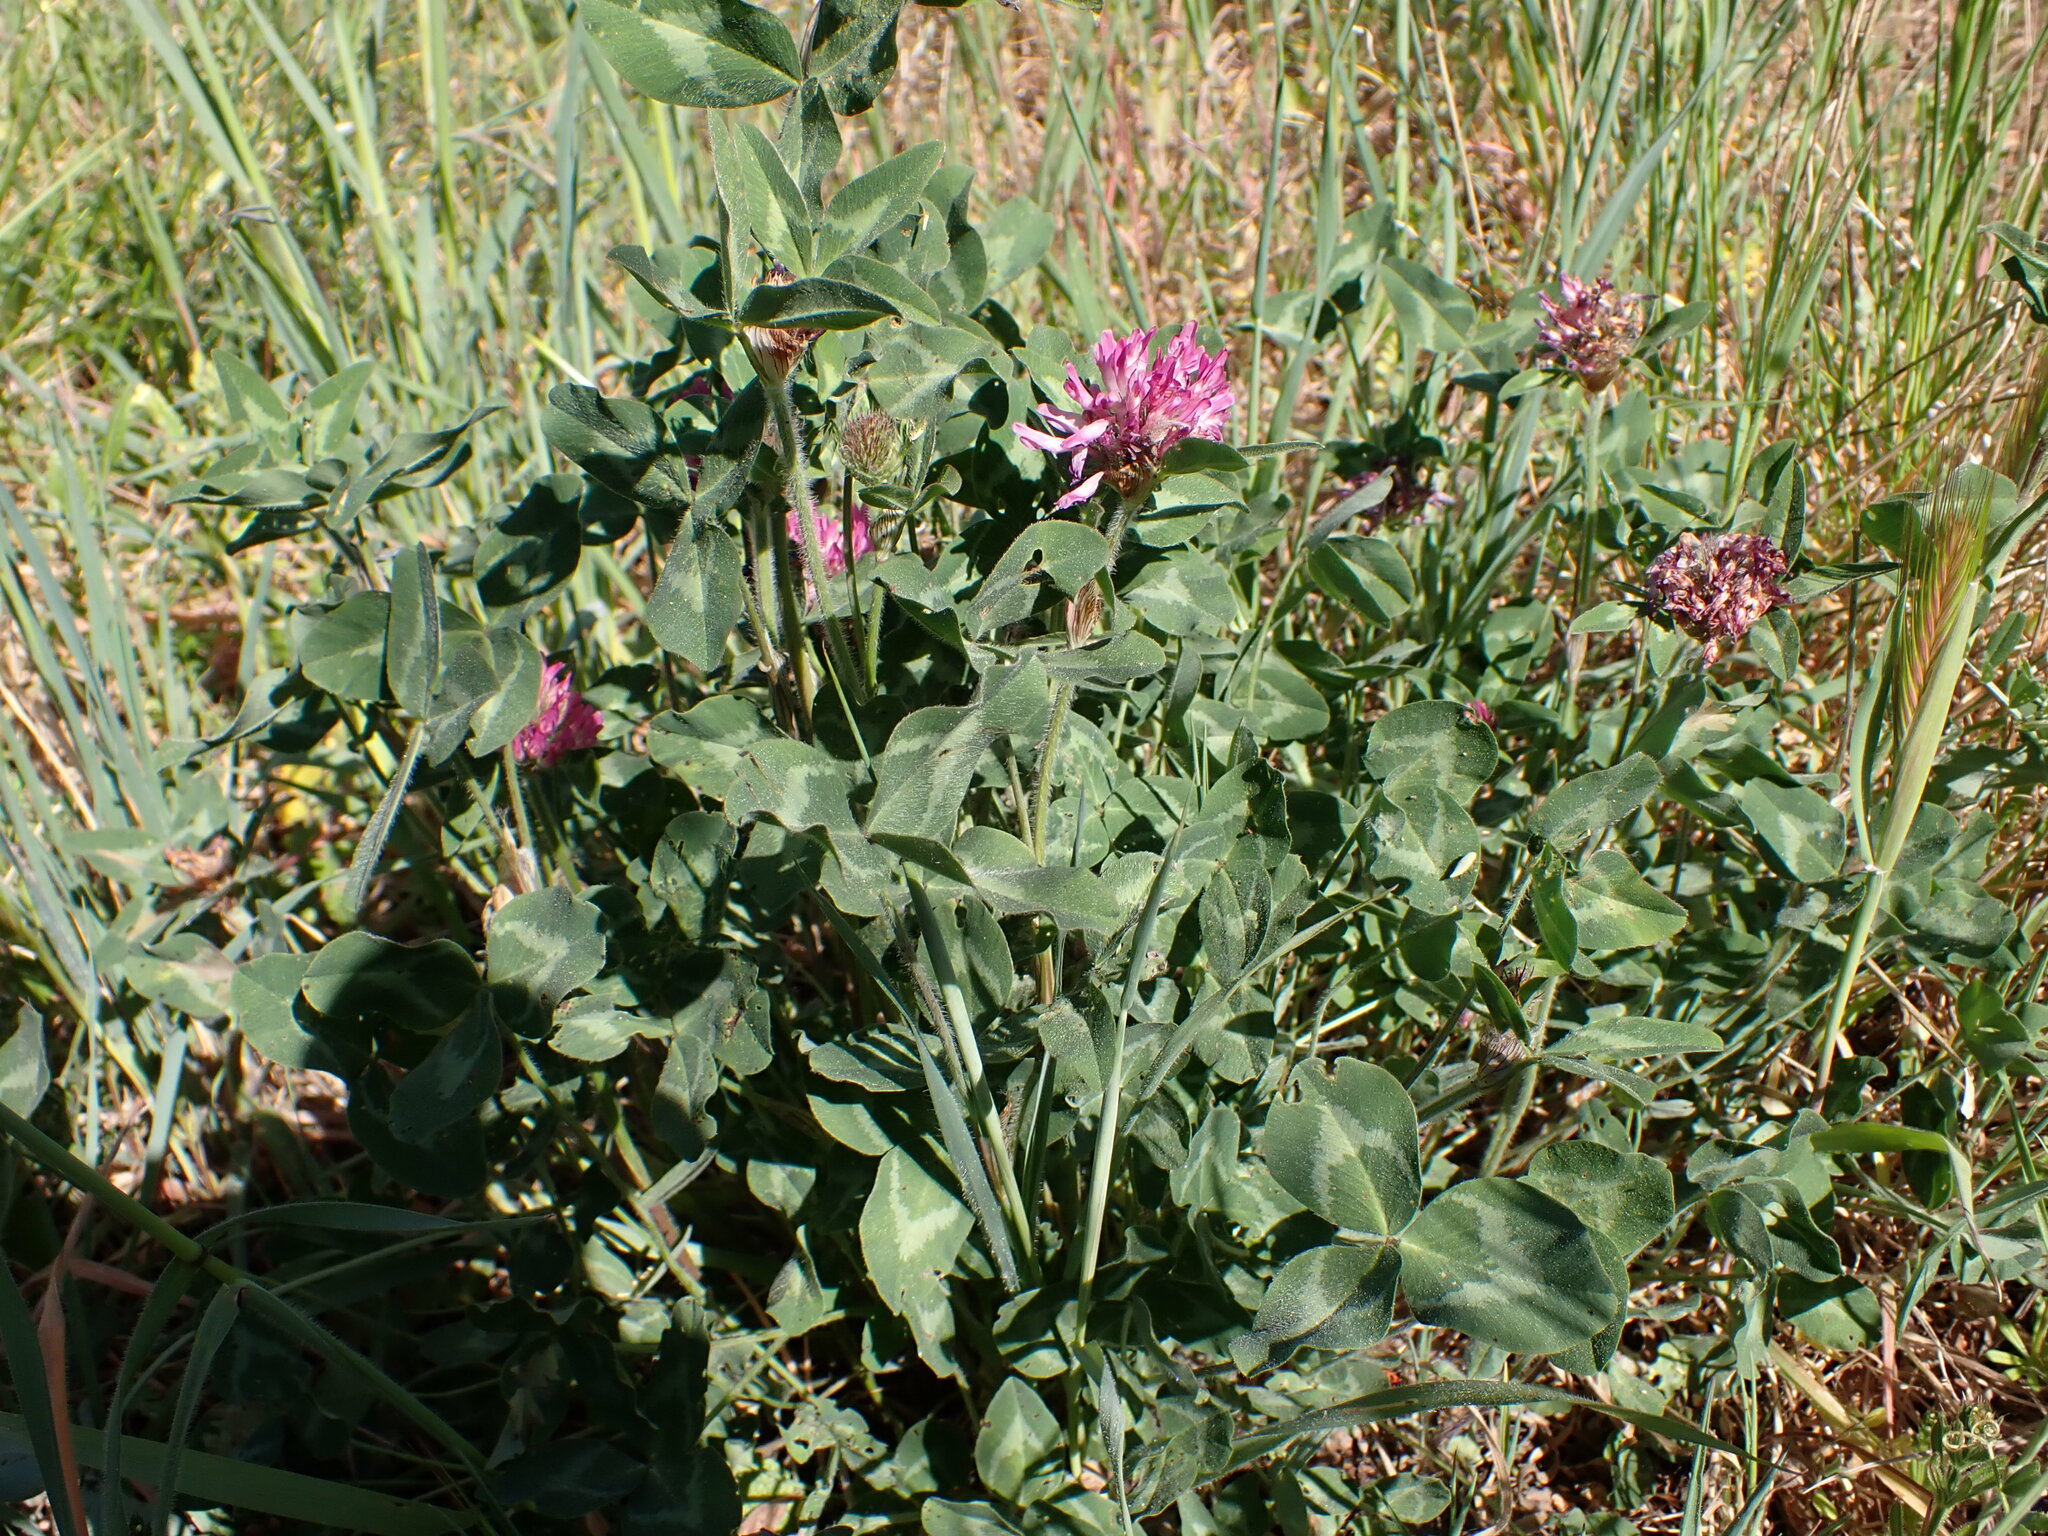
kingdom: Plantae
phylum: Tracheophyta
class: Magnoliopsida
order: Fabales
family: Fabaceae
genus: Trifolium
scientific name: Trifolium pratense
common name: Red clover
